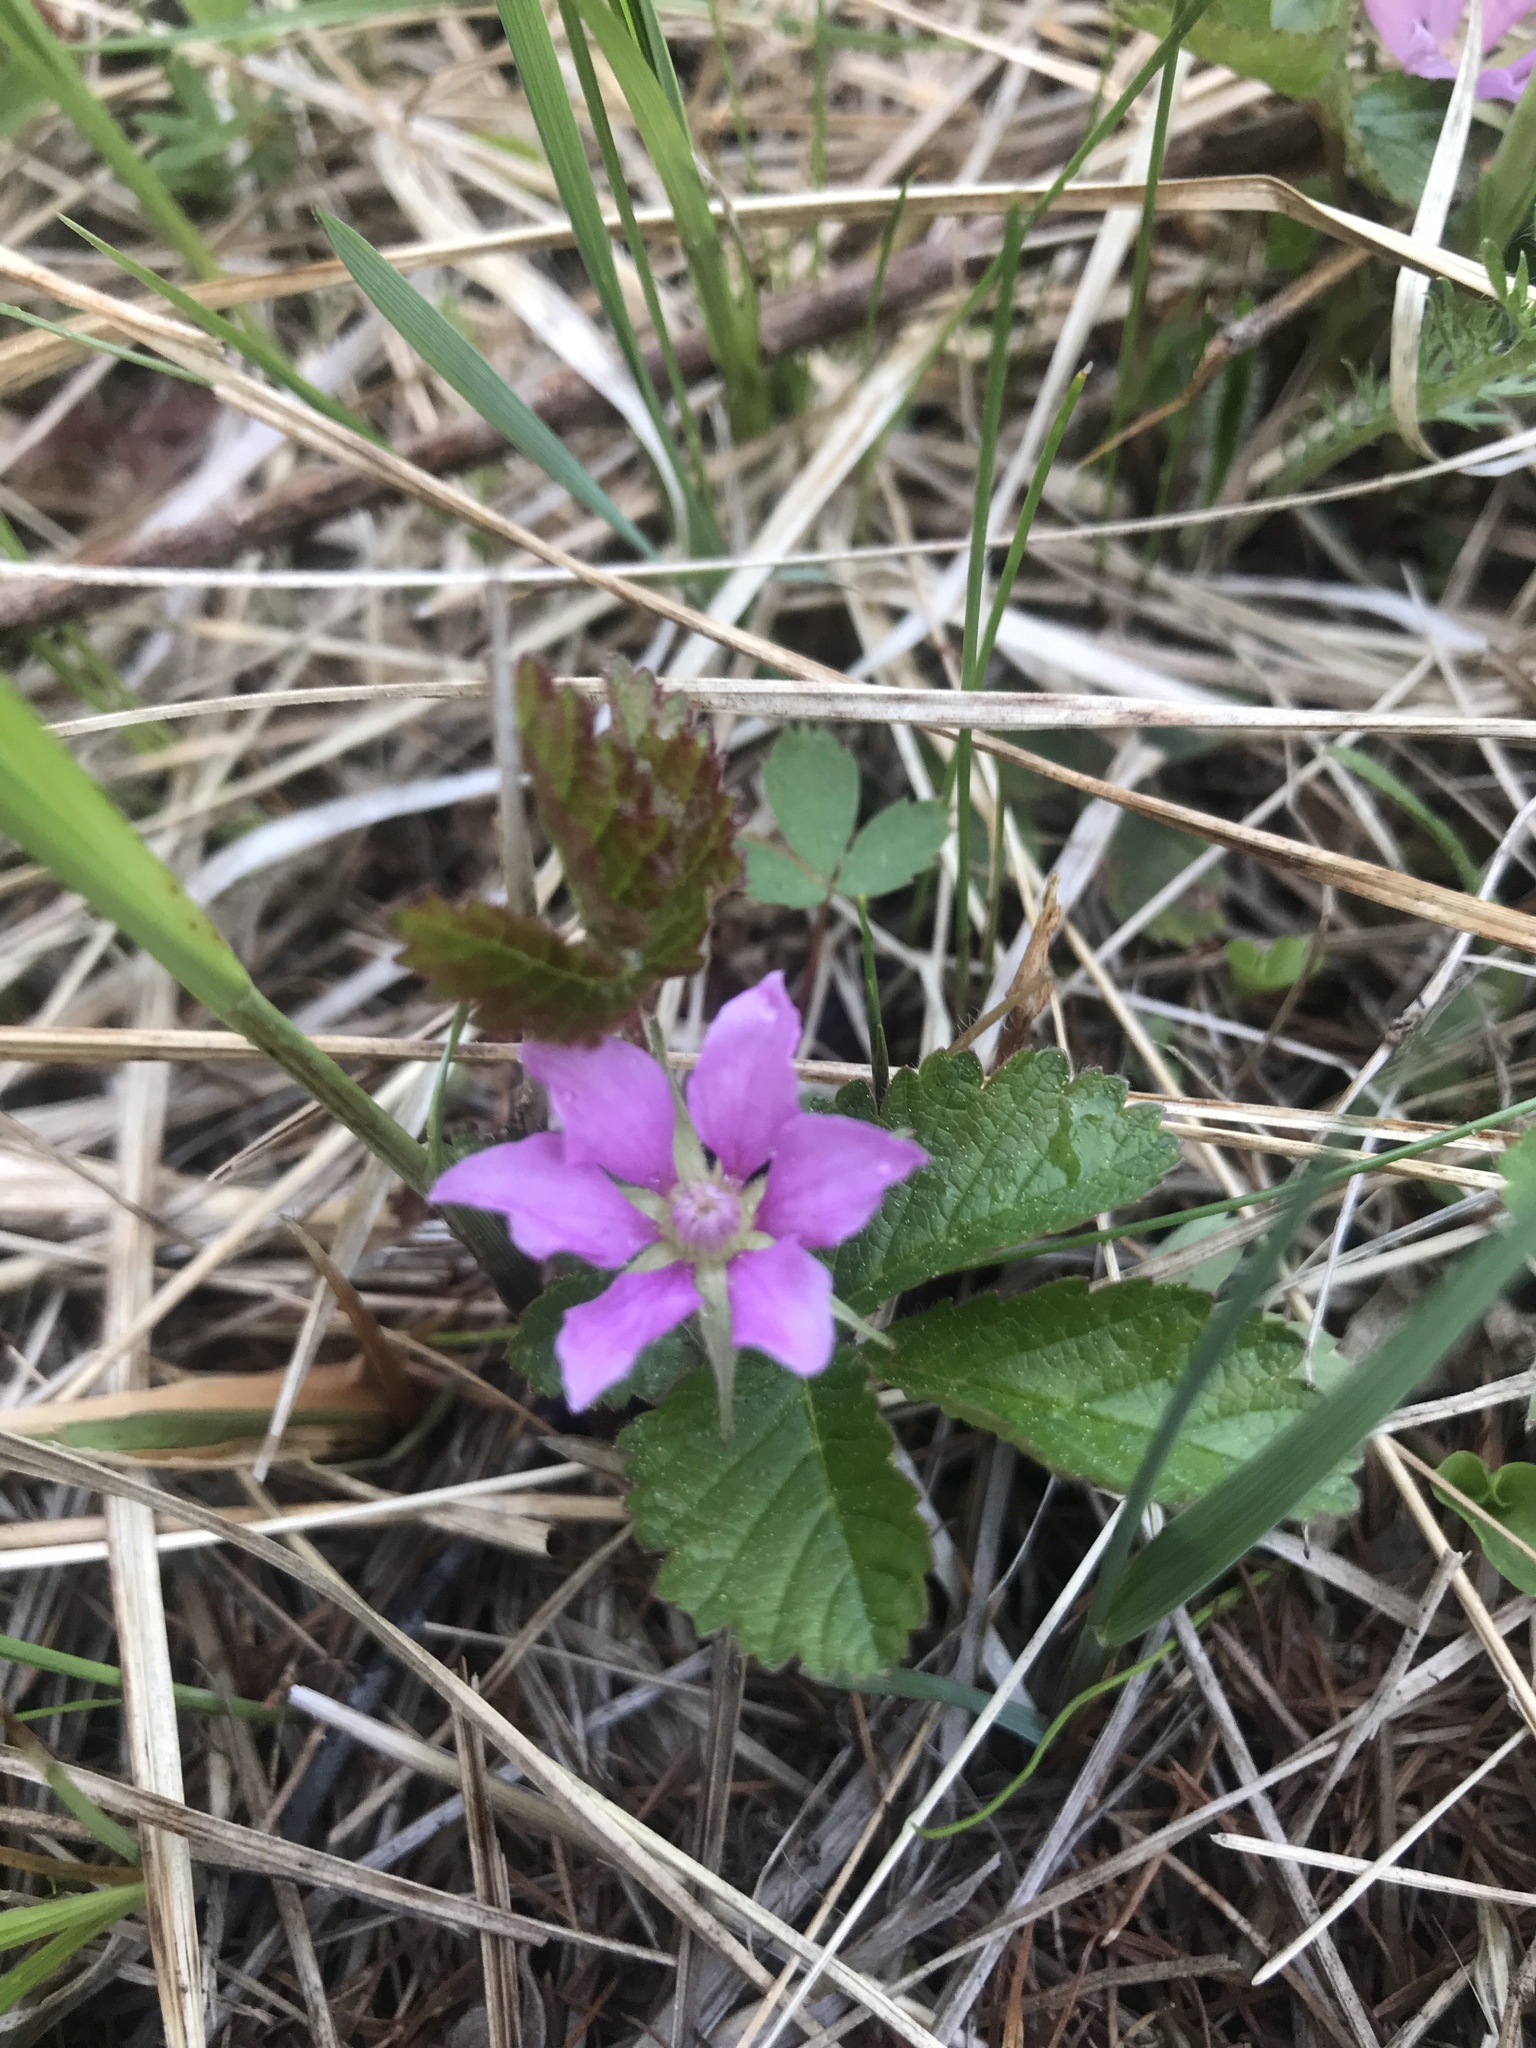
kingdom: Plantae
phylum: Tracheophyta
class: Magnoliopsida
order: Rosales
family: Rosaceae
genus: Rubus
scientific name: Rubus arcticus
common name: Arctic bramble
